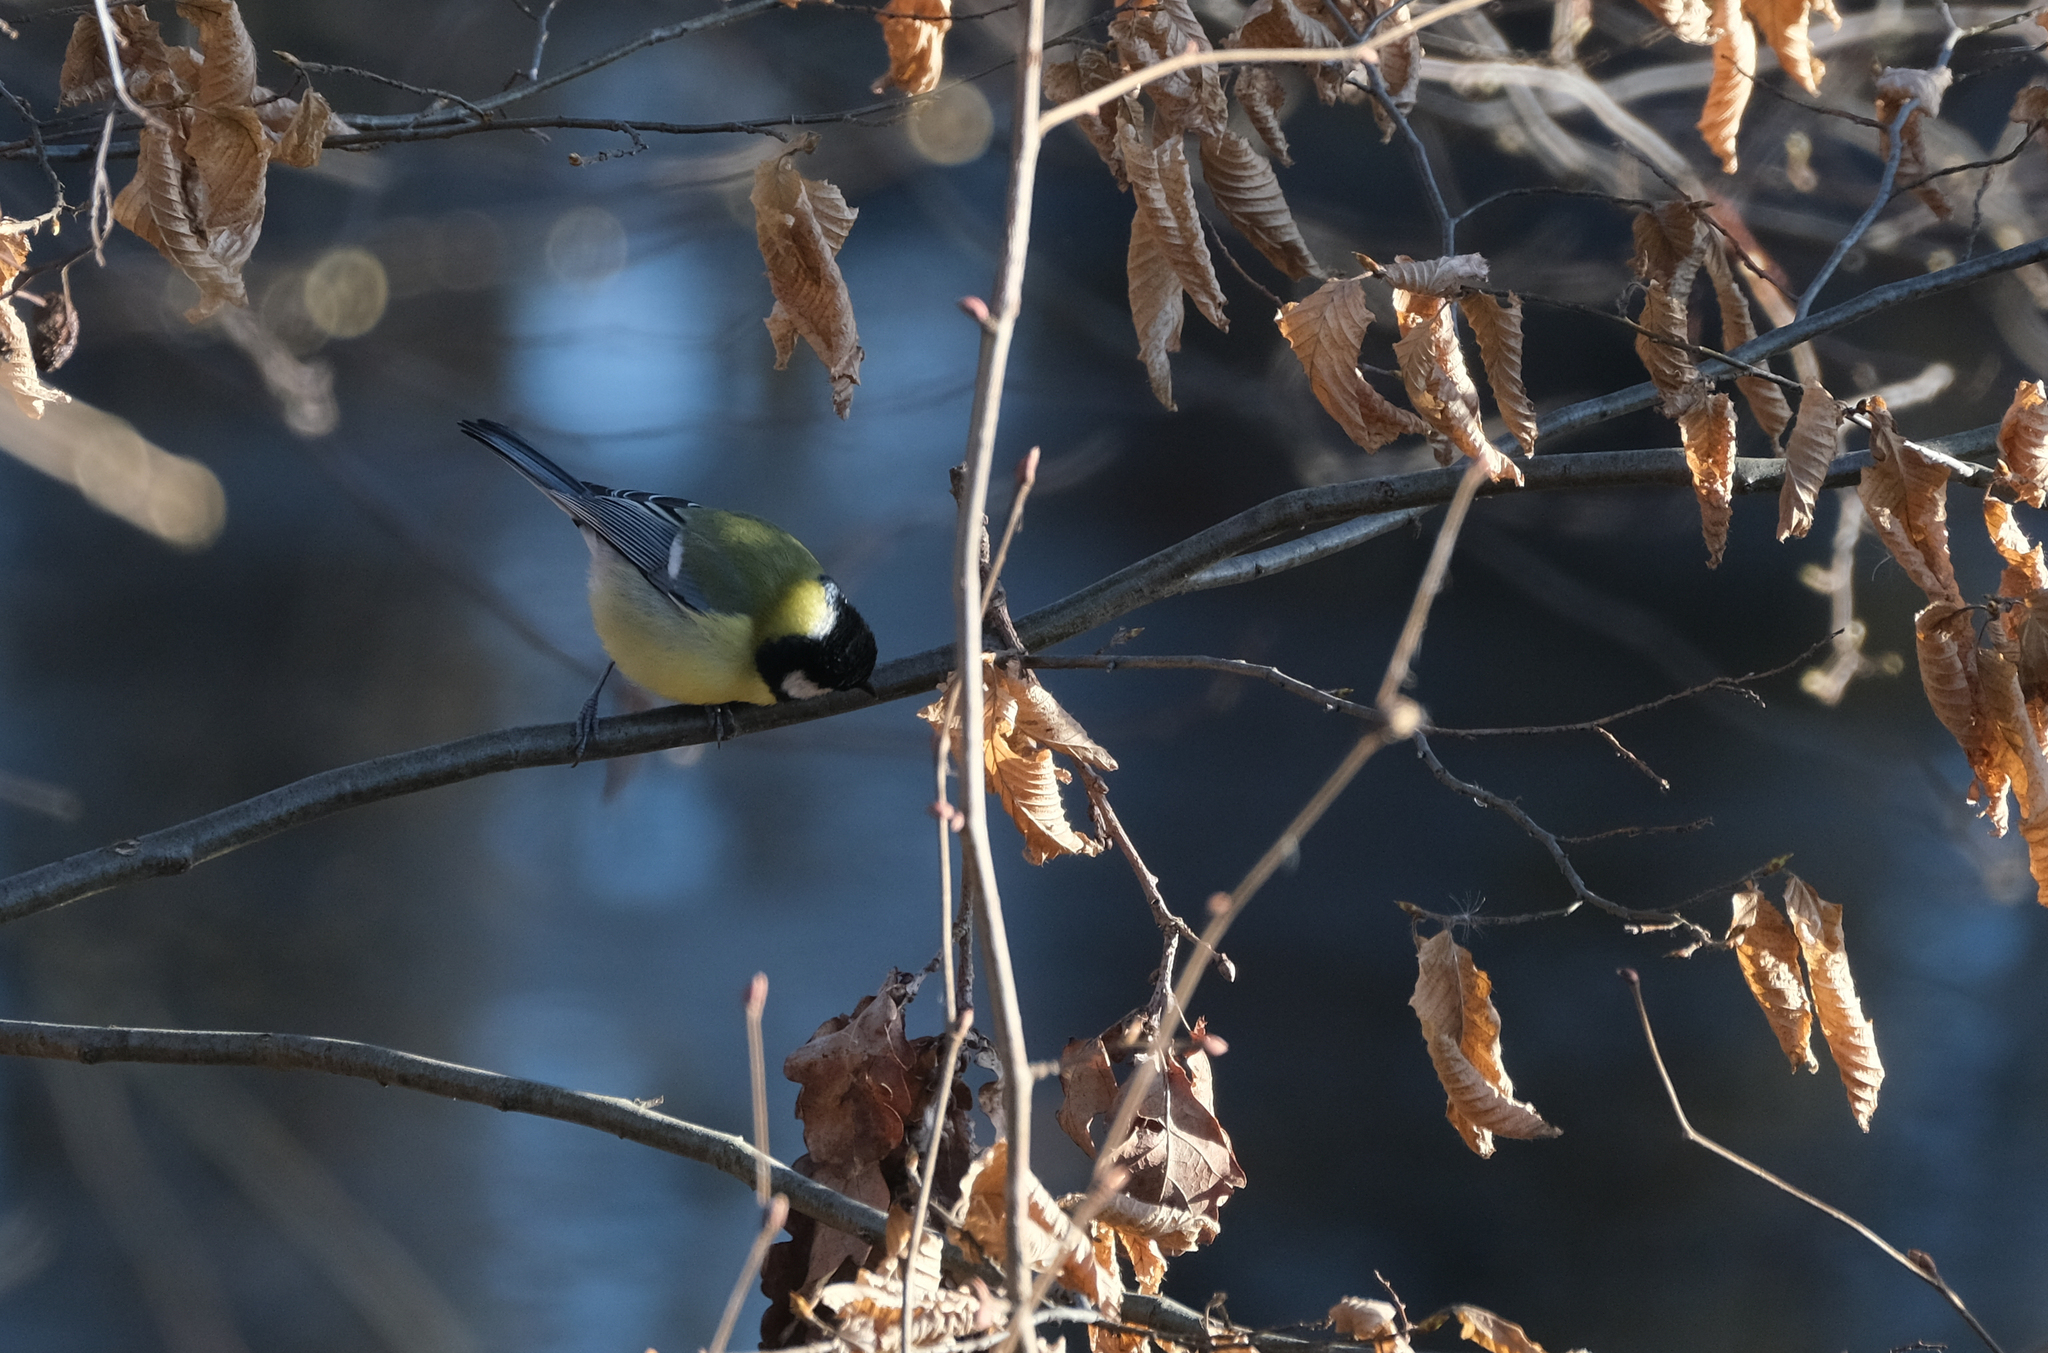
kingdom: Animalia
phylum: Chordata
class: Aves
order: Passeriformes
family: Paridae
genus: Parus
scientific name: Parus major
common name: Great tit
